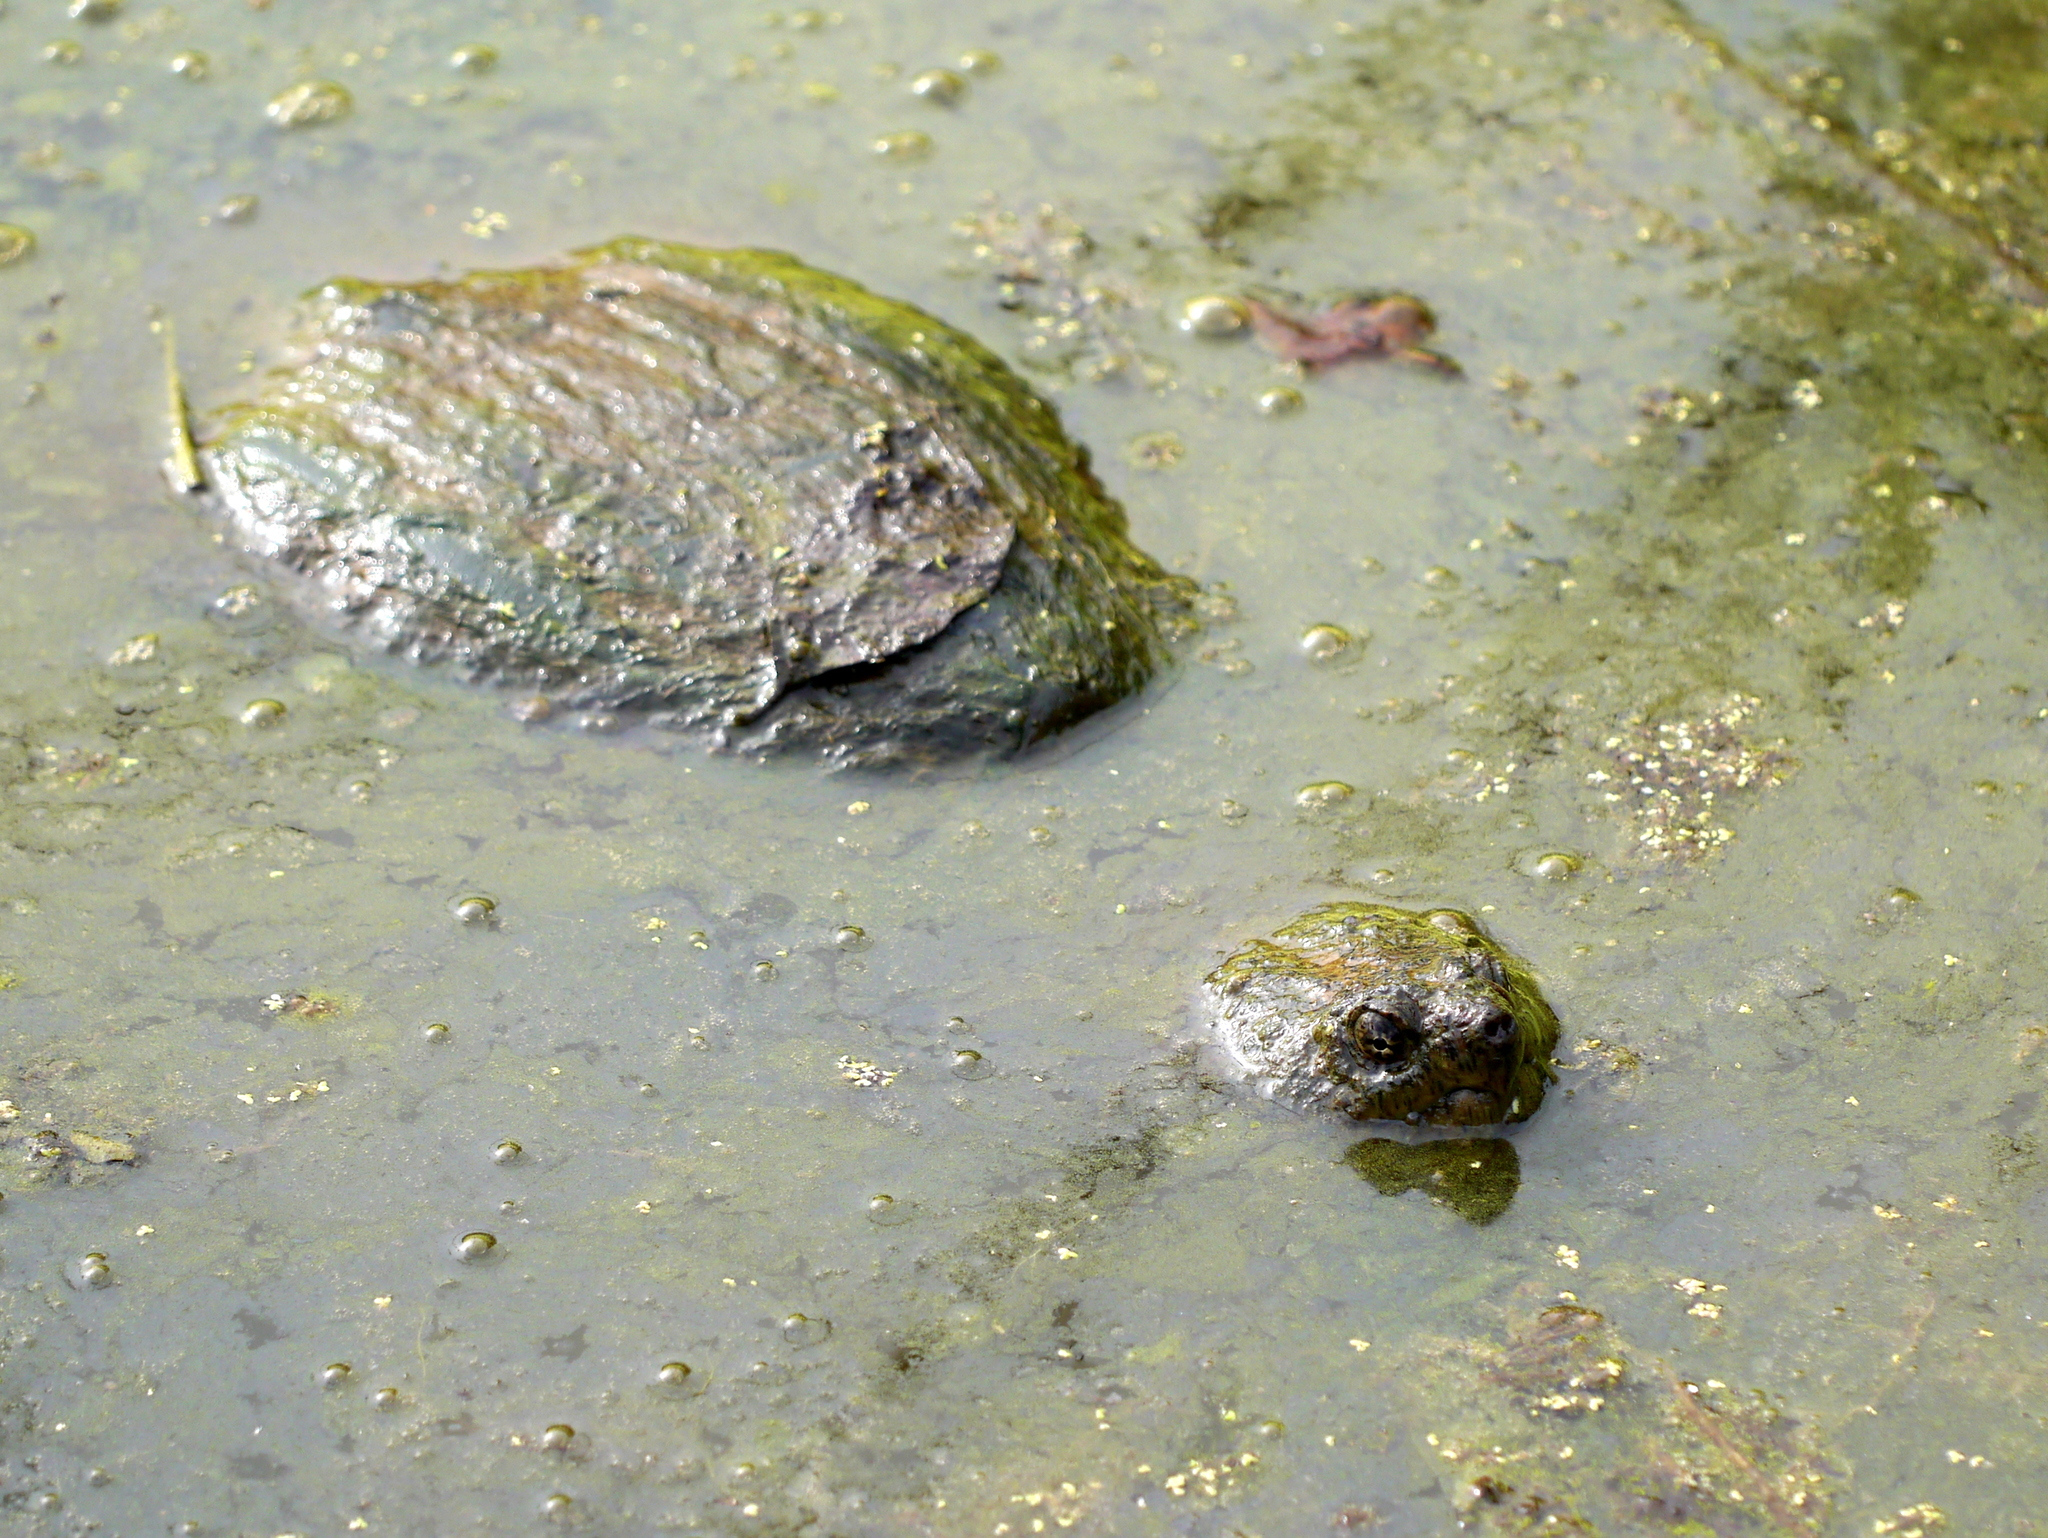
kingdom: Animalia
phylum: Chordata
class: Testudines
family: Chelydridae
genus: Chelydra
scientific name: Chelydra serpentina
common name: Common snapping turtle
